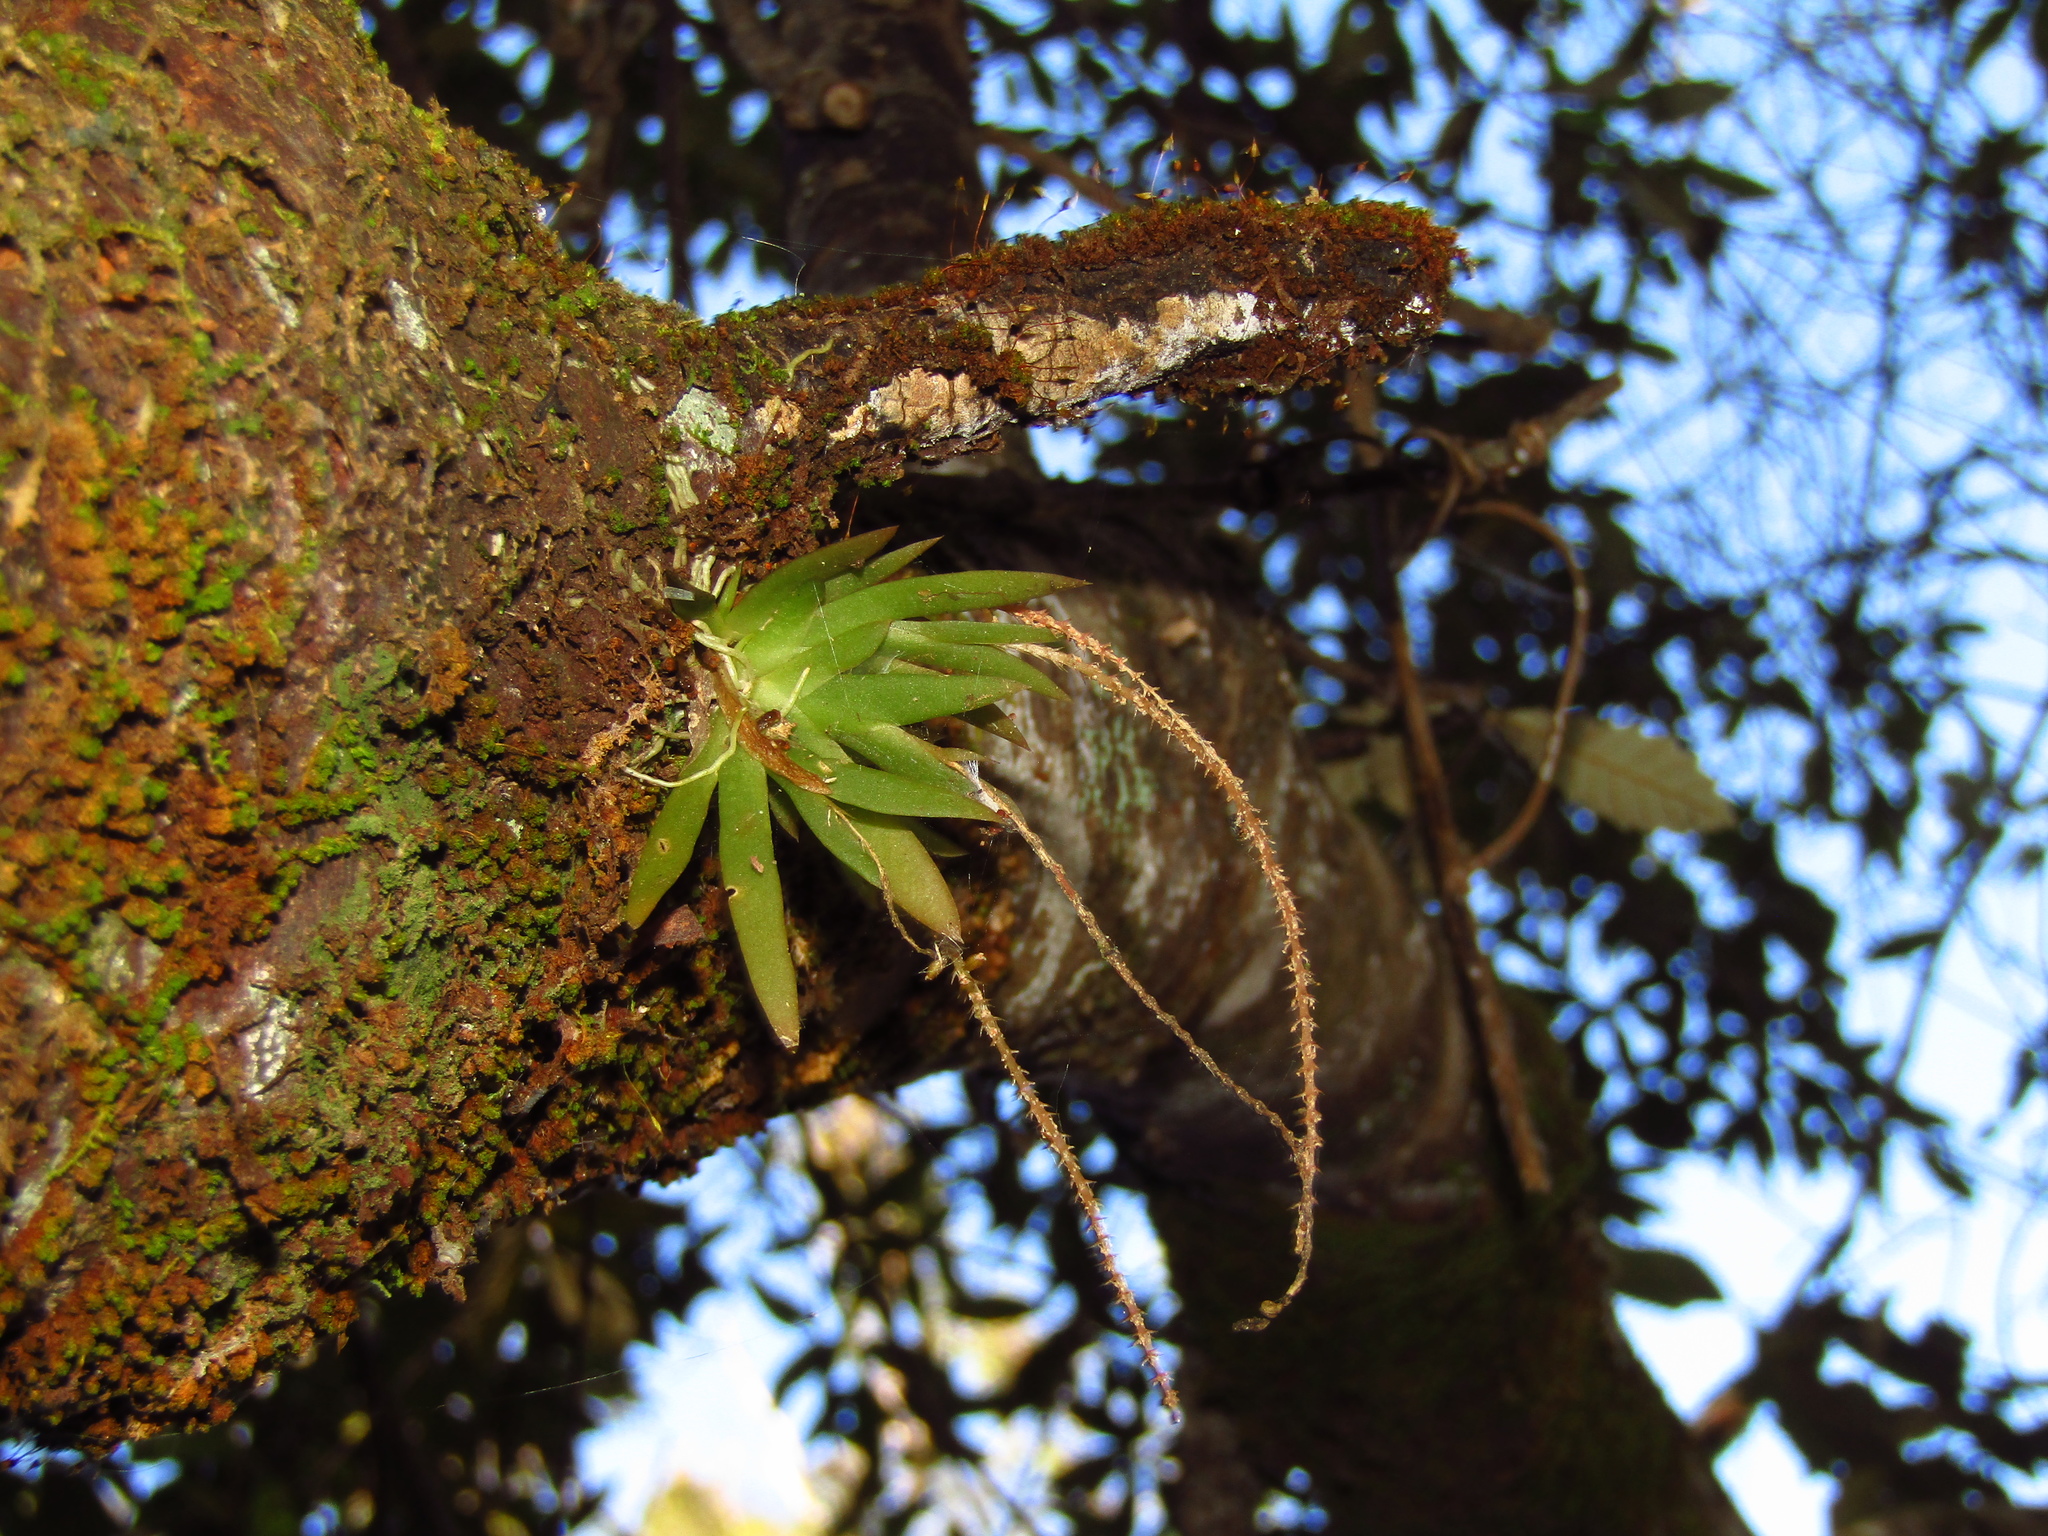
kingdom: Plantae
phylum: Tracheophyta
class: Liliopsida
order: Asparagales
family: Orchidaceae
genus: Oberonia
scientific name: Oberonia titania
